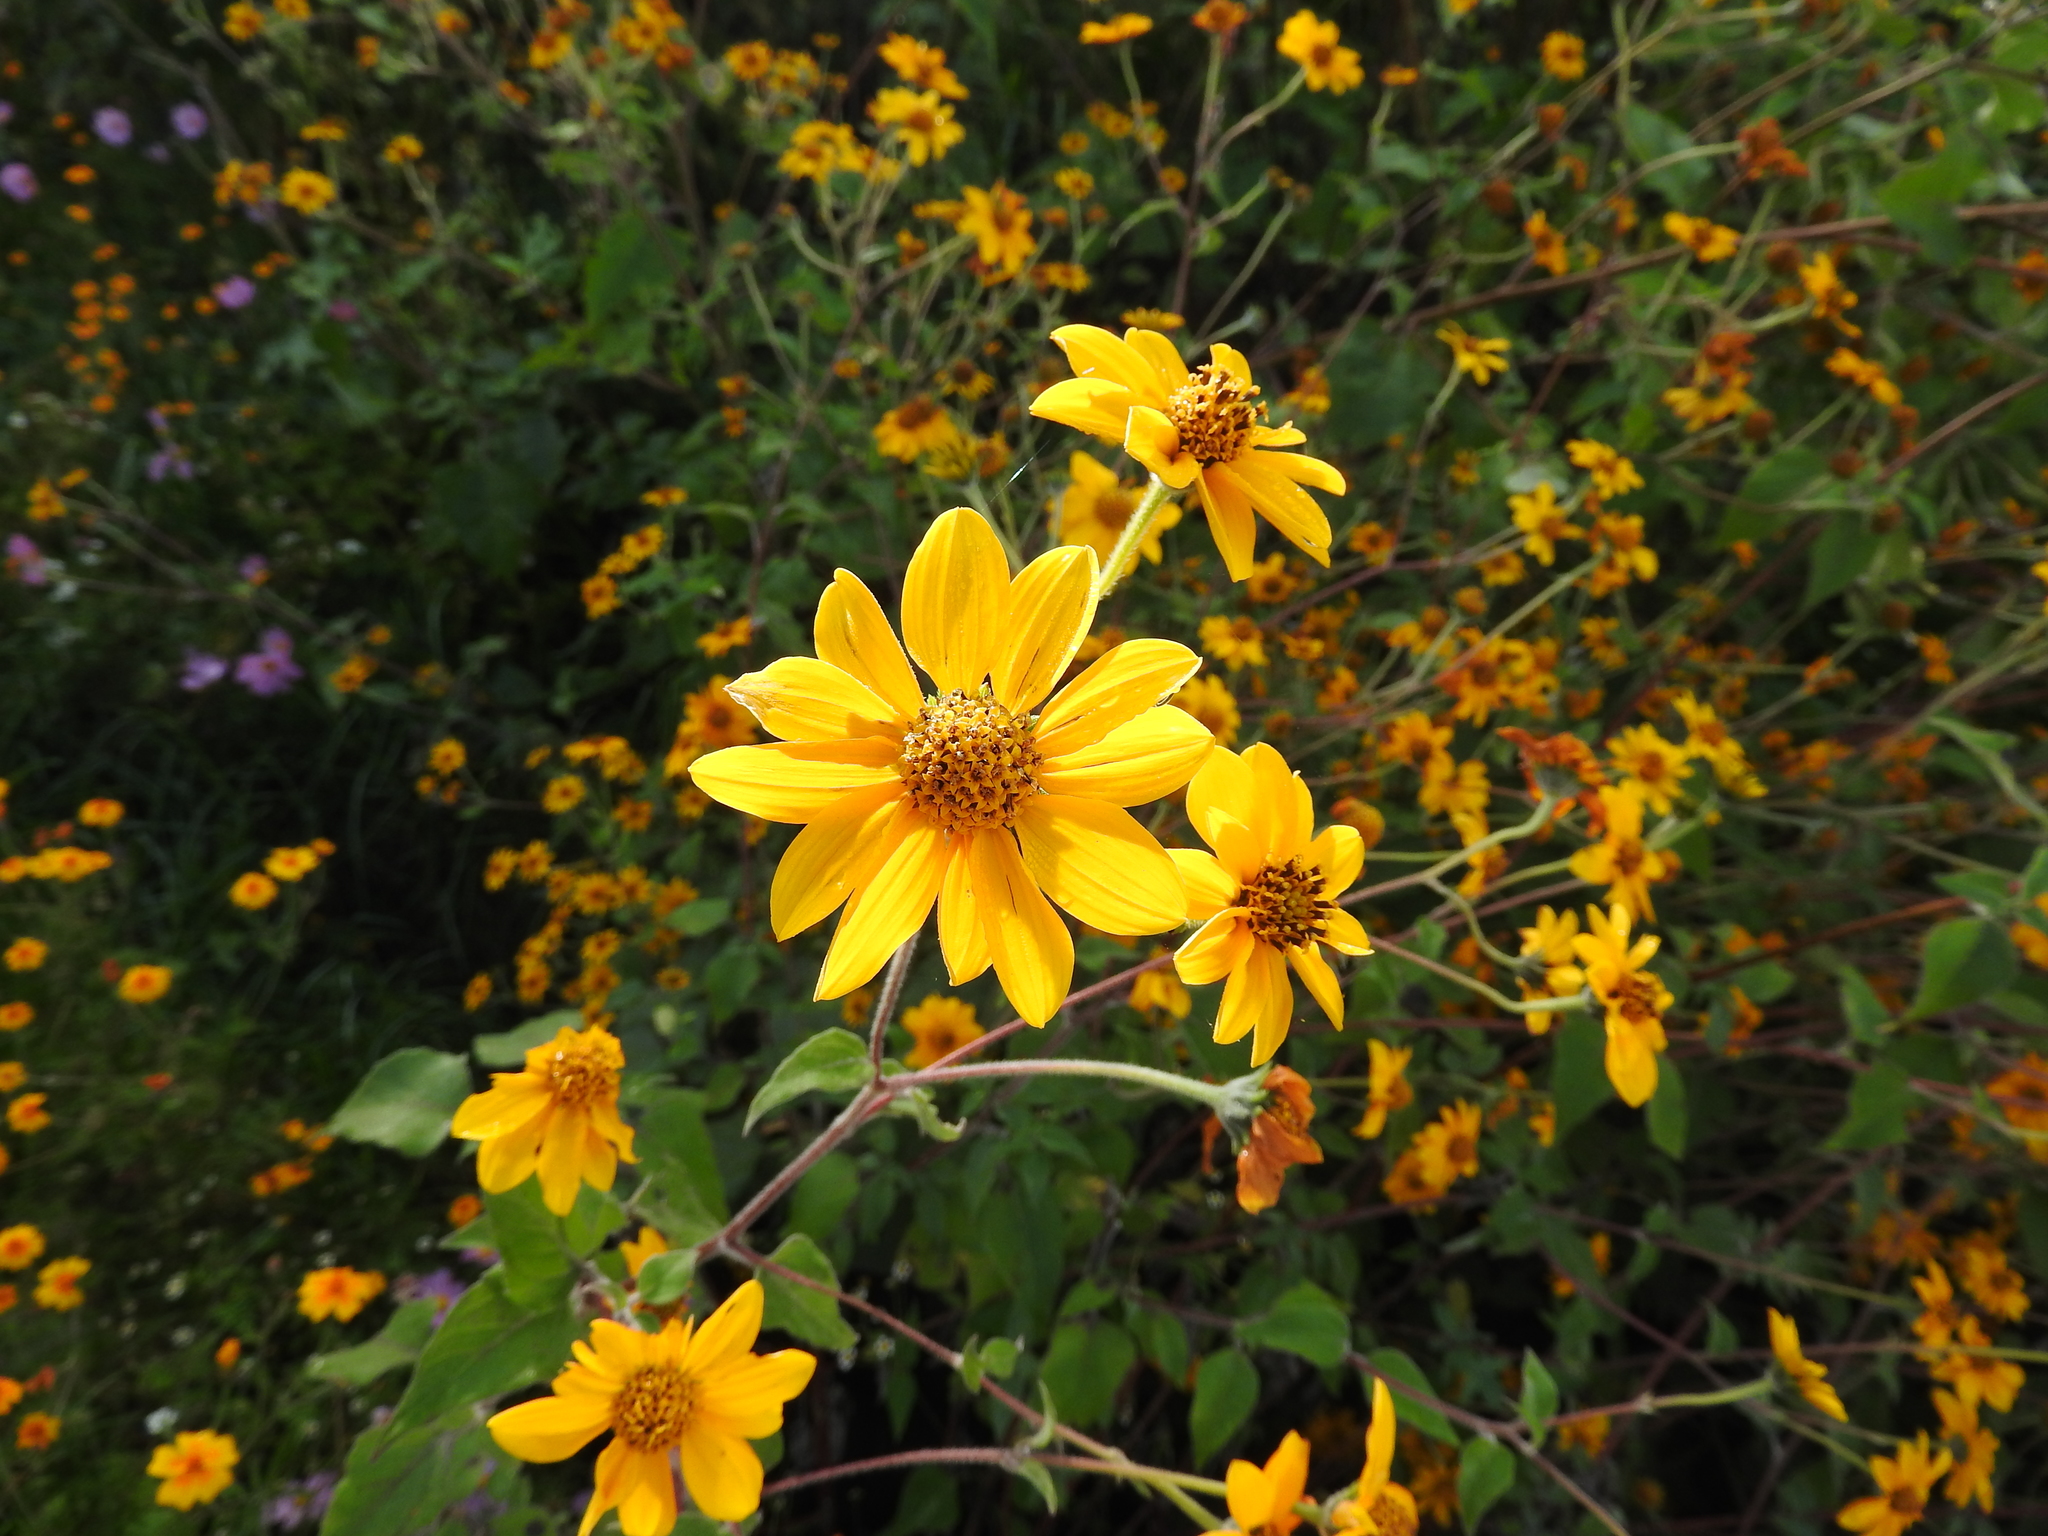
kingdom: Plantae
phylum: Tracheophyta
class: Magnoliopsida
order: Asterales
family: Asteraceae
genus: Viguiera
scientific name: Viguiera dentata
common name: Toothleaf
